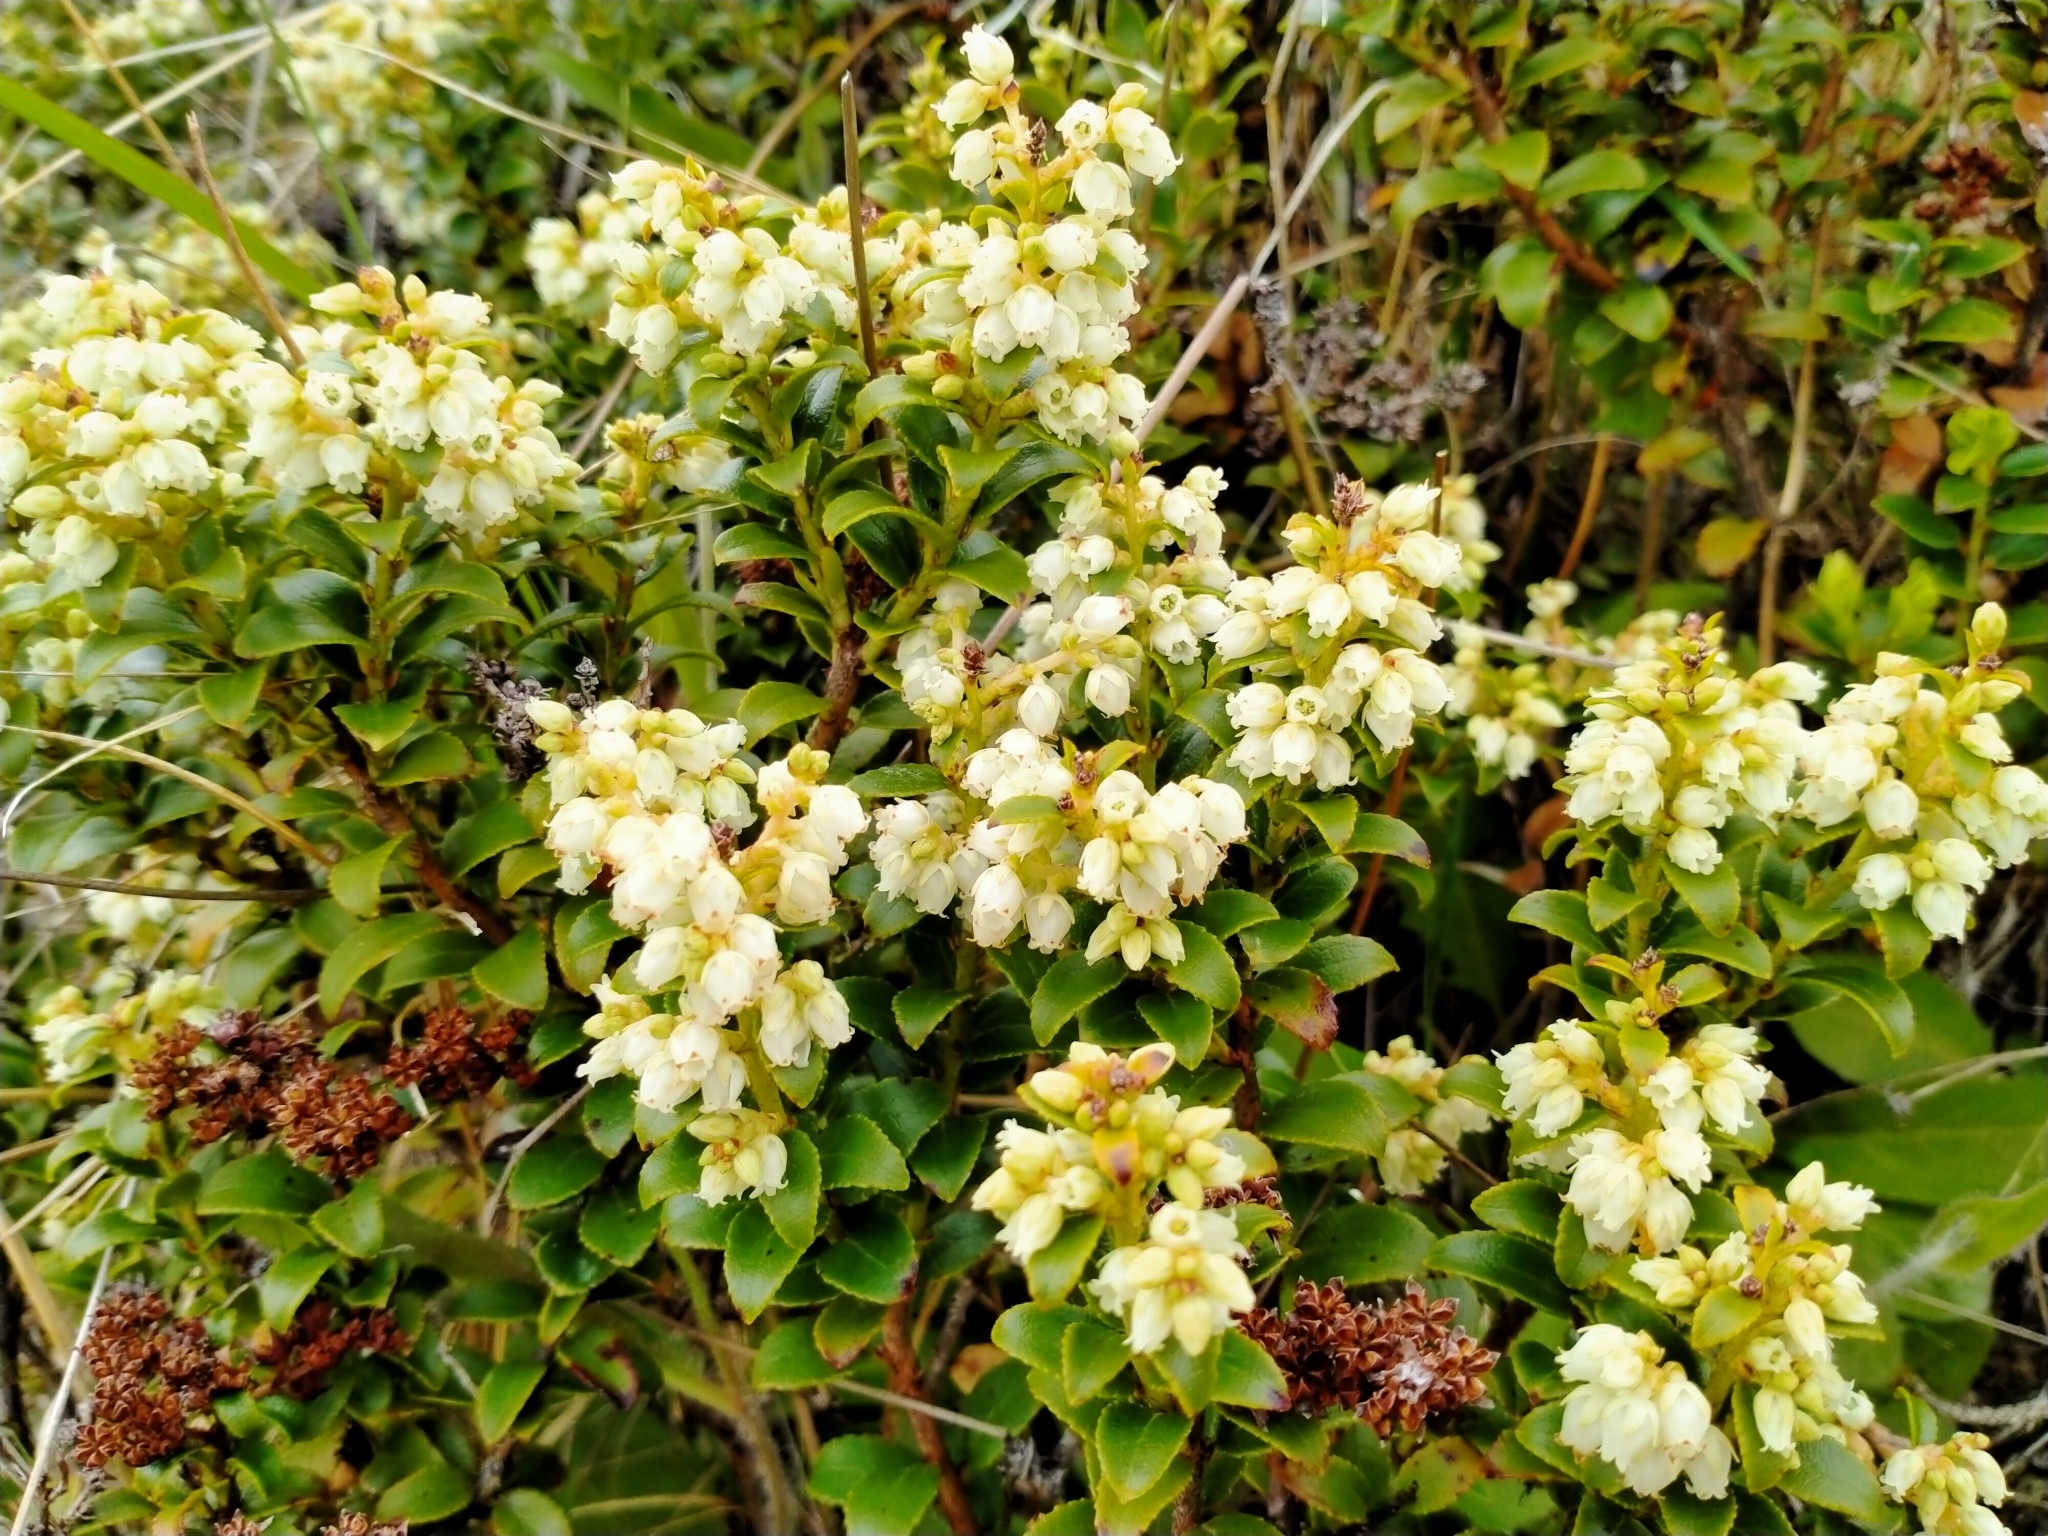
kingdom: Plantae
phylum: Tracheophyta
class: Magnoliopsida
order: Ericales
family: Ericaceae
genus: Gaultheria
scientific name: Gaultheria crassa
